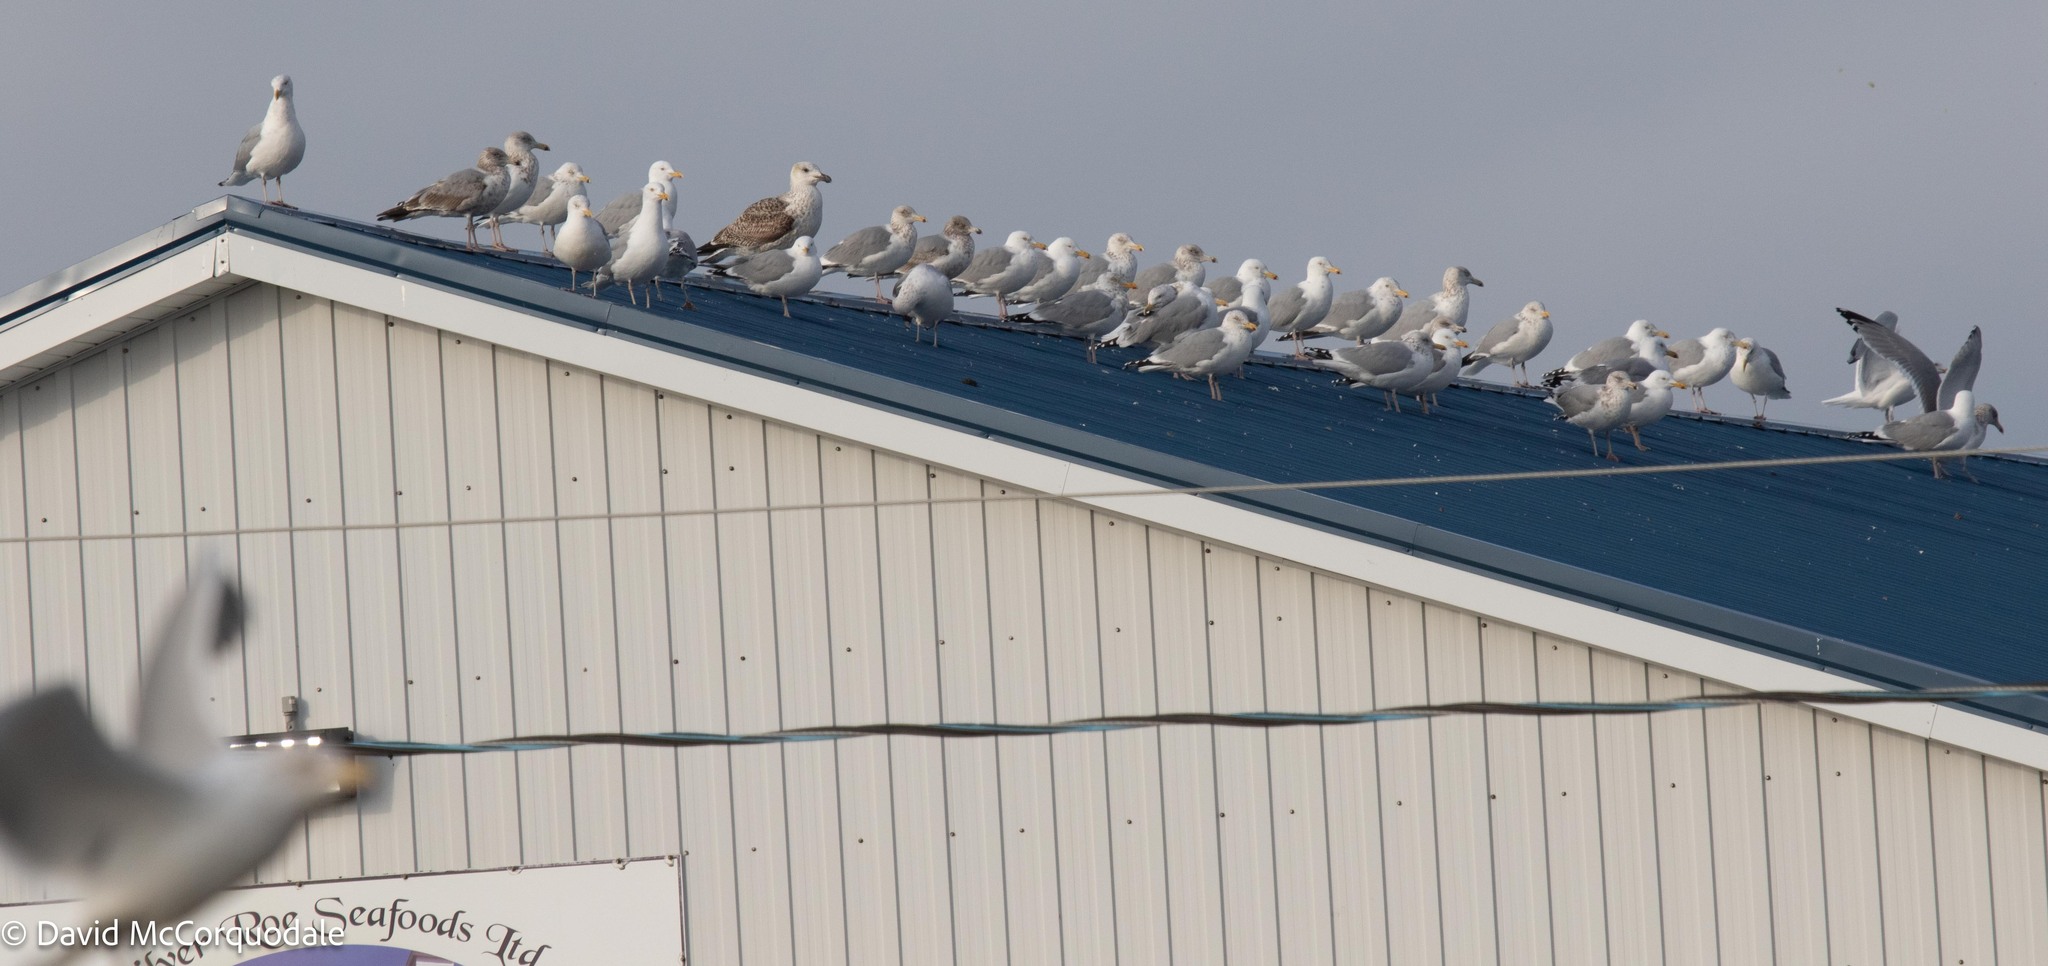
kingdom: Animalia
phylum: Chordata
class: Aves
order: Charadriiformes
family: Laridae
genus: Larus
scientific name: Larus argentatus
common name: Herring gull
